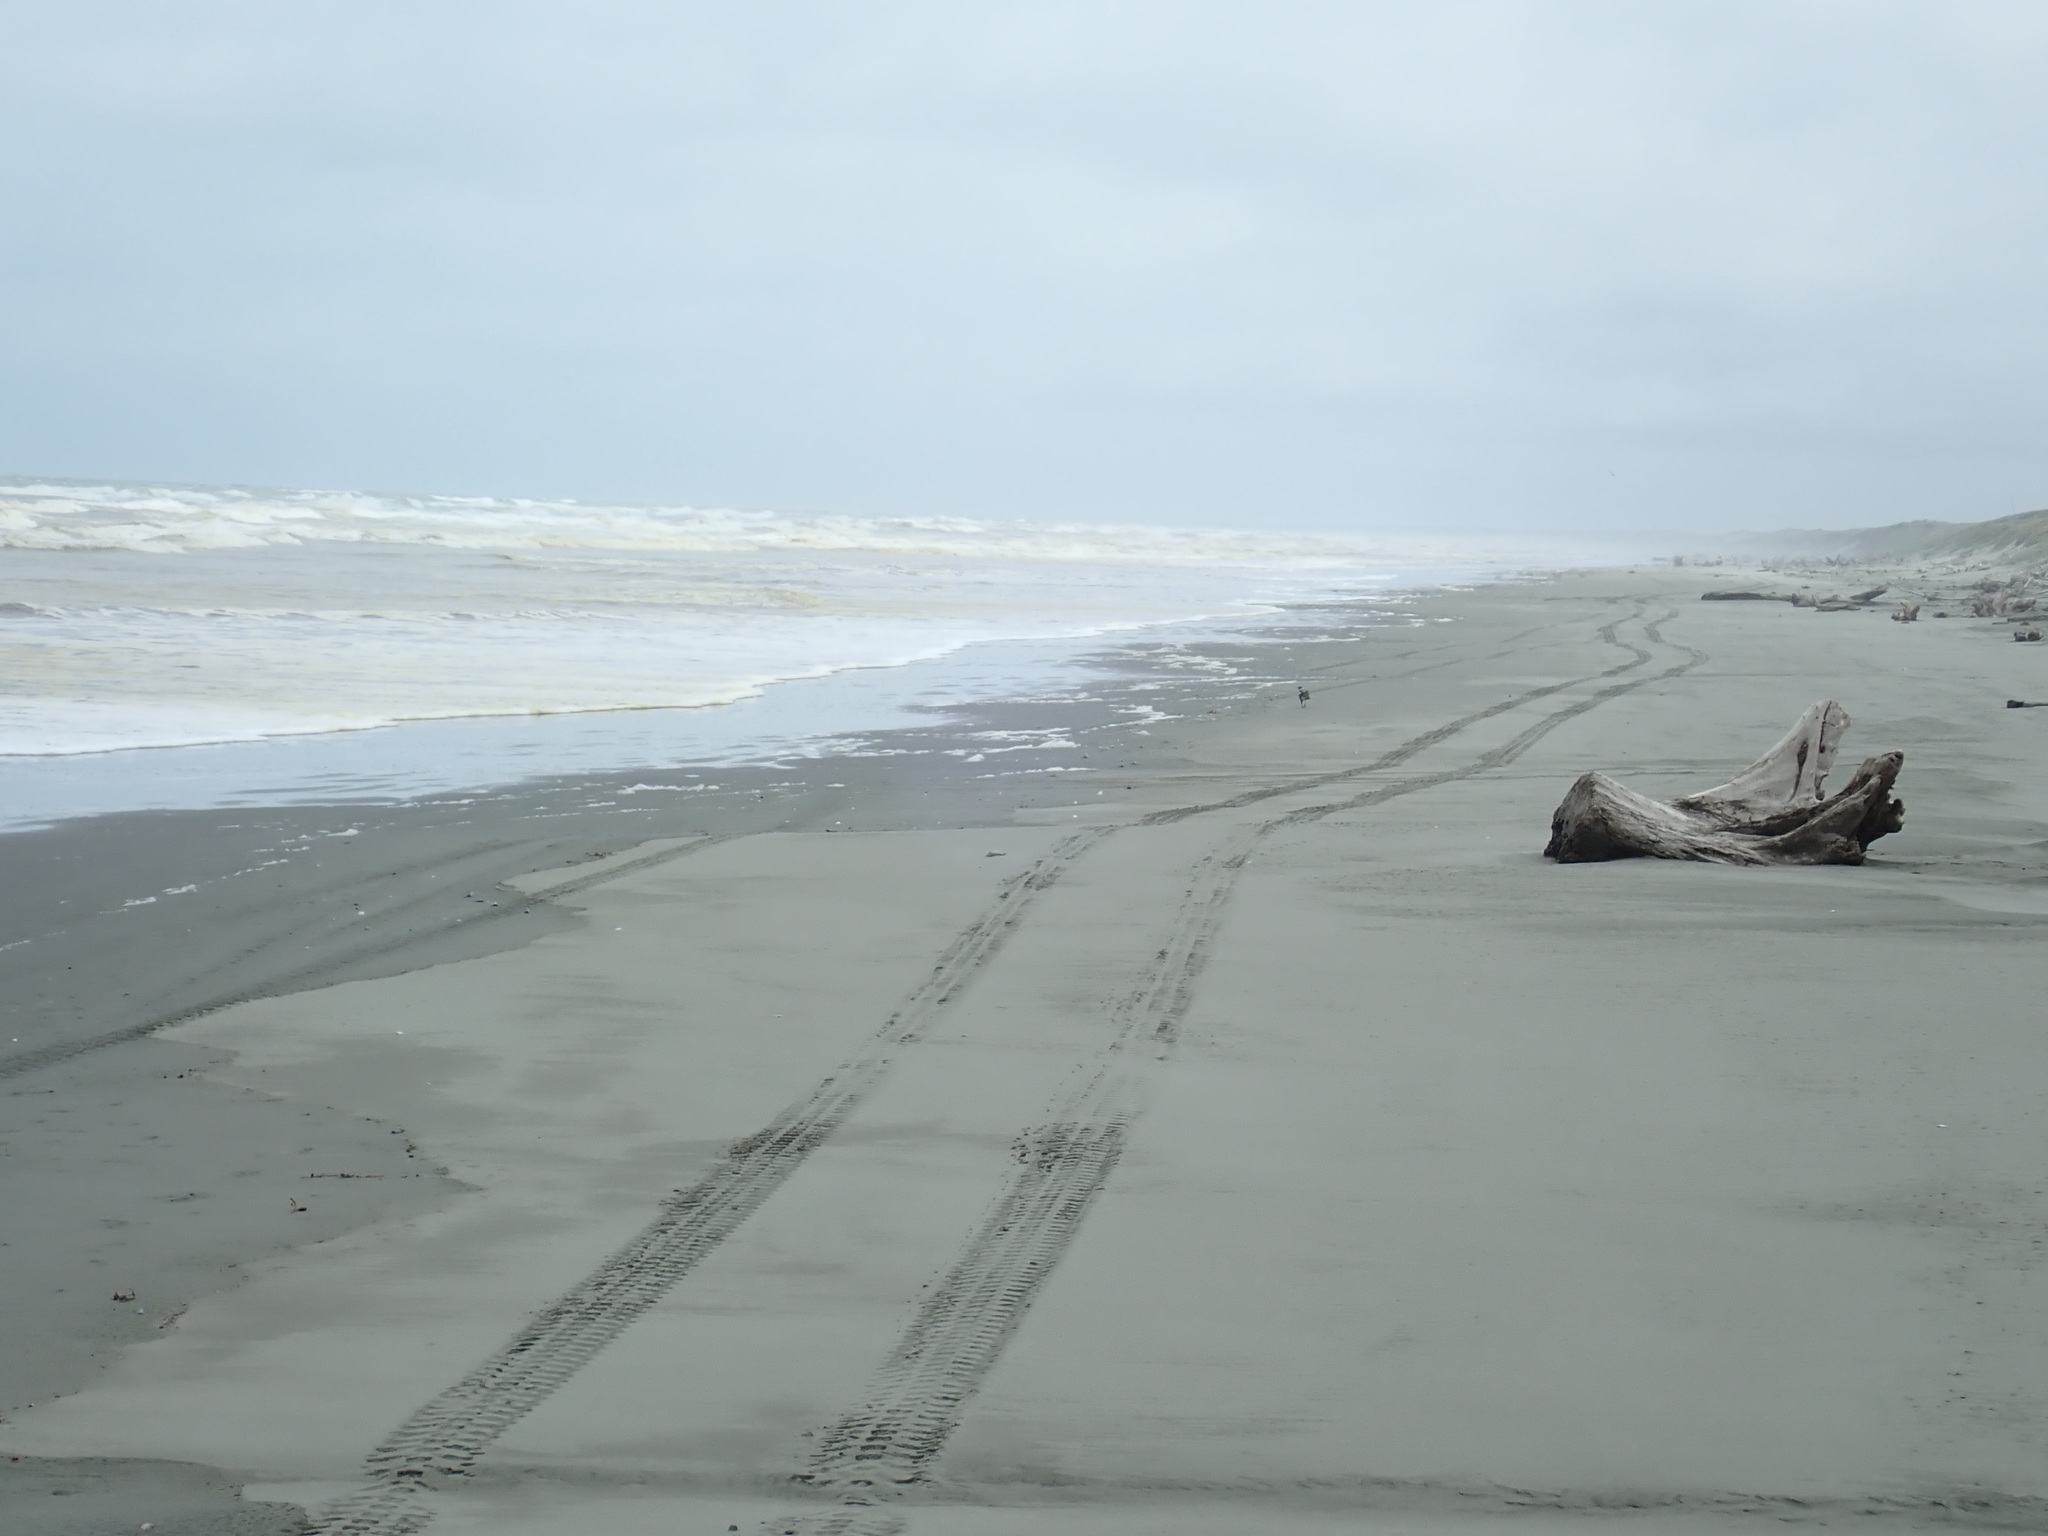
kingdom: Animalia
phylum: Chordata
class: Aves
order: Passeriformes
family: Cracticidae
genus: Gymnorhina
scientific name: Gymnorhina tibicen
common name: Australian magpie
